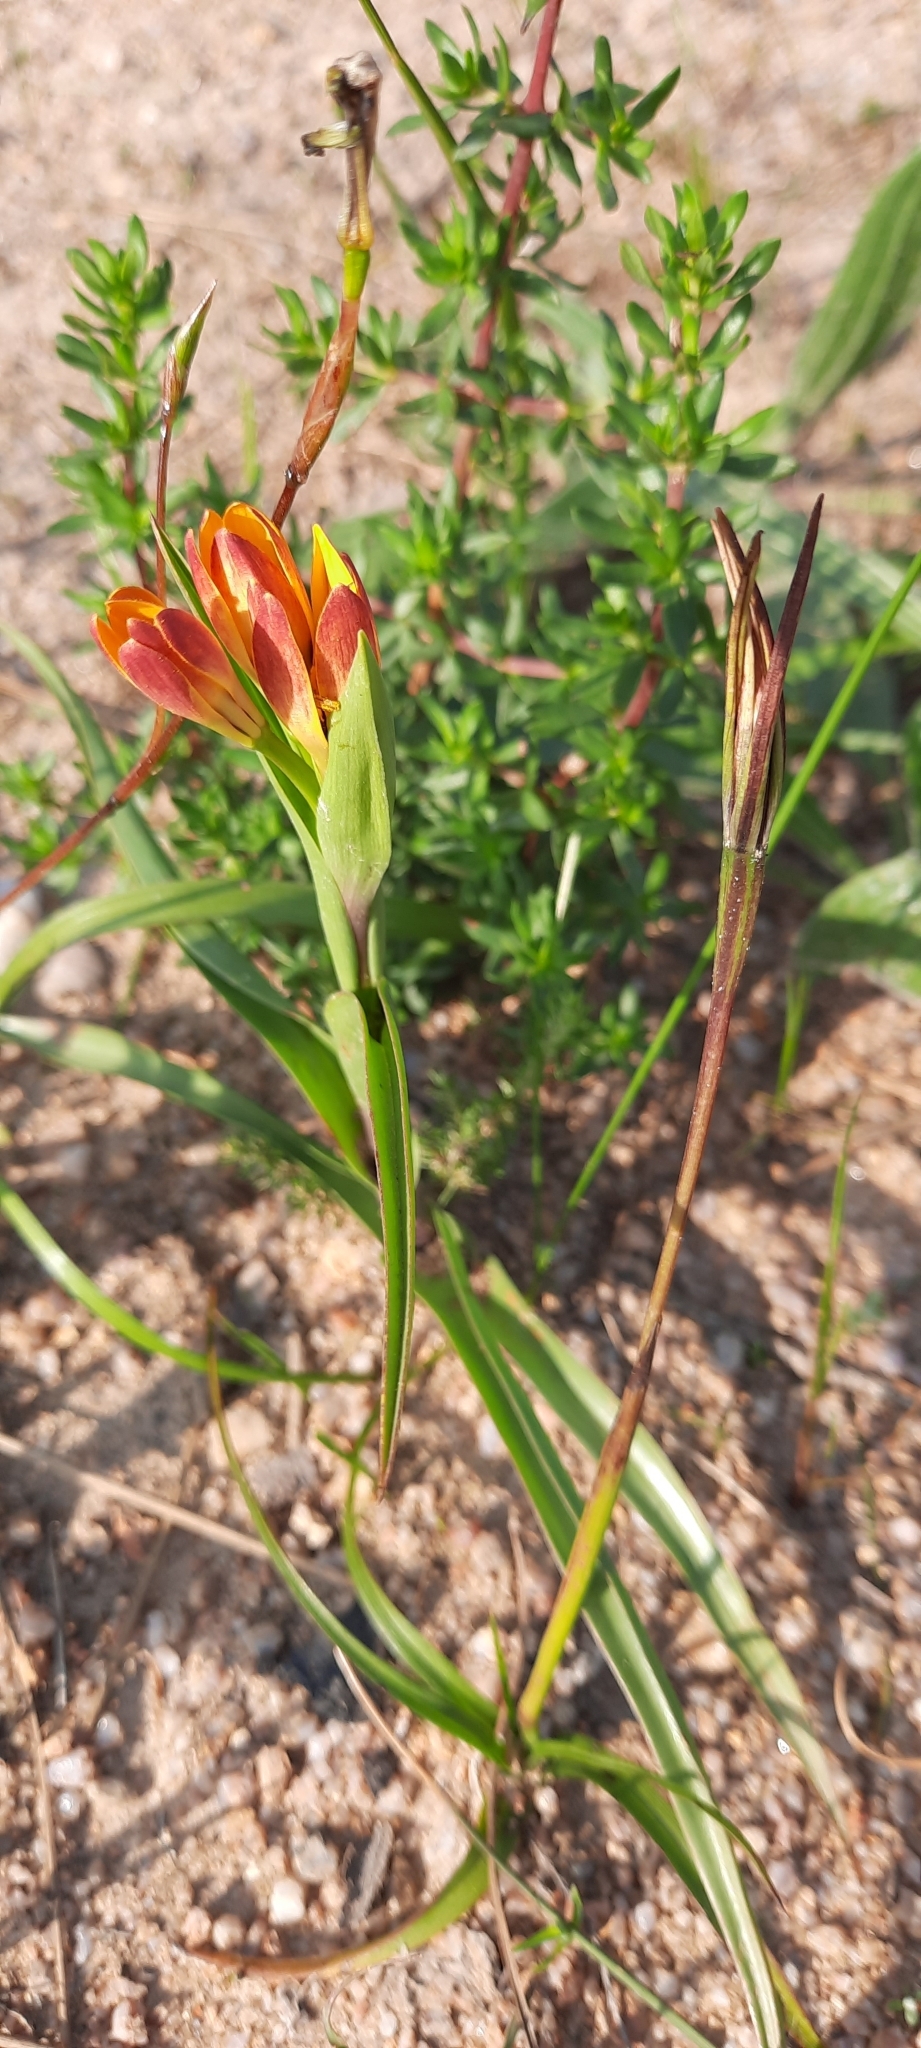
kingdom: Plantae
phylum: Tracheophyta
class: Liliopsida
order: Liliales
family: Colchicaceae
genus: Baeometra
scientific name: Baeometra uniflora
